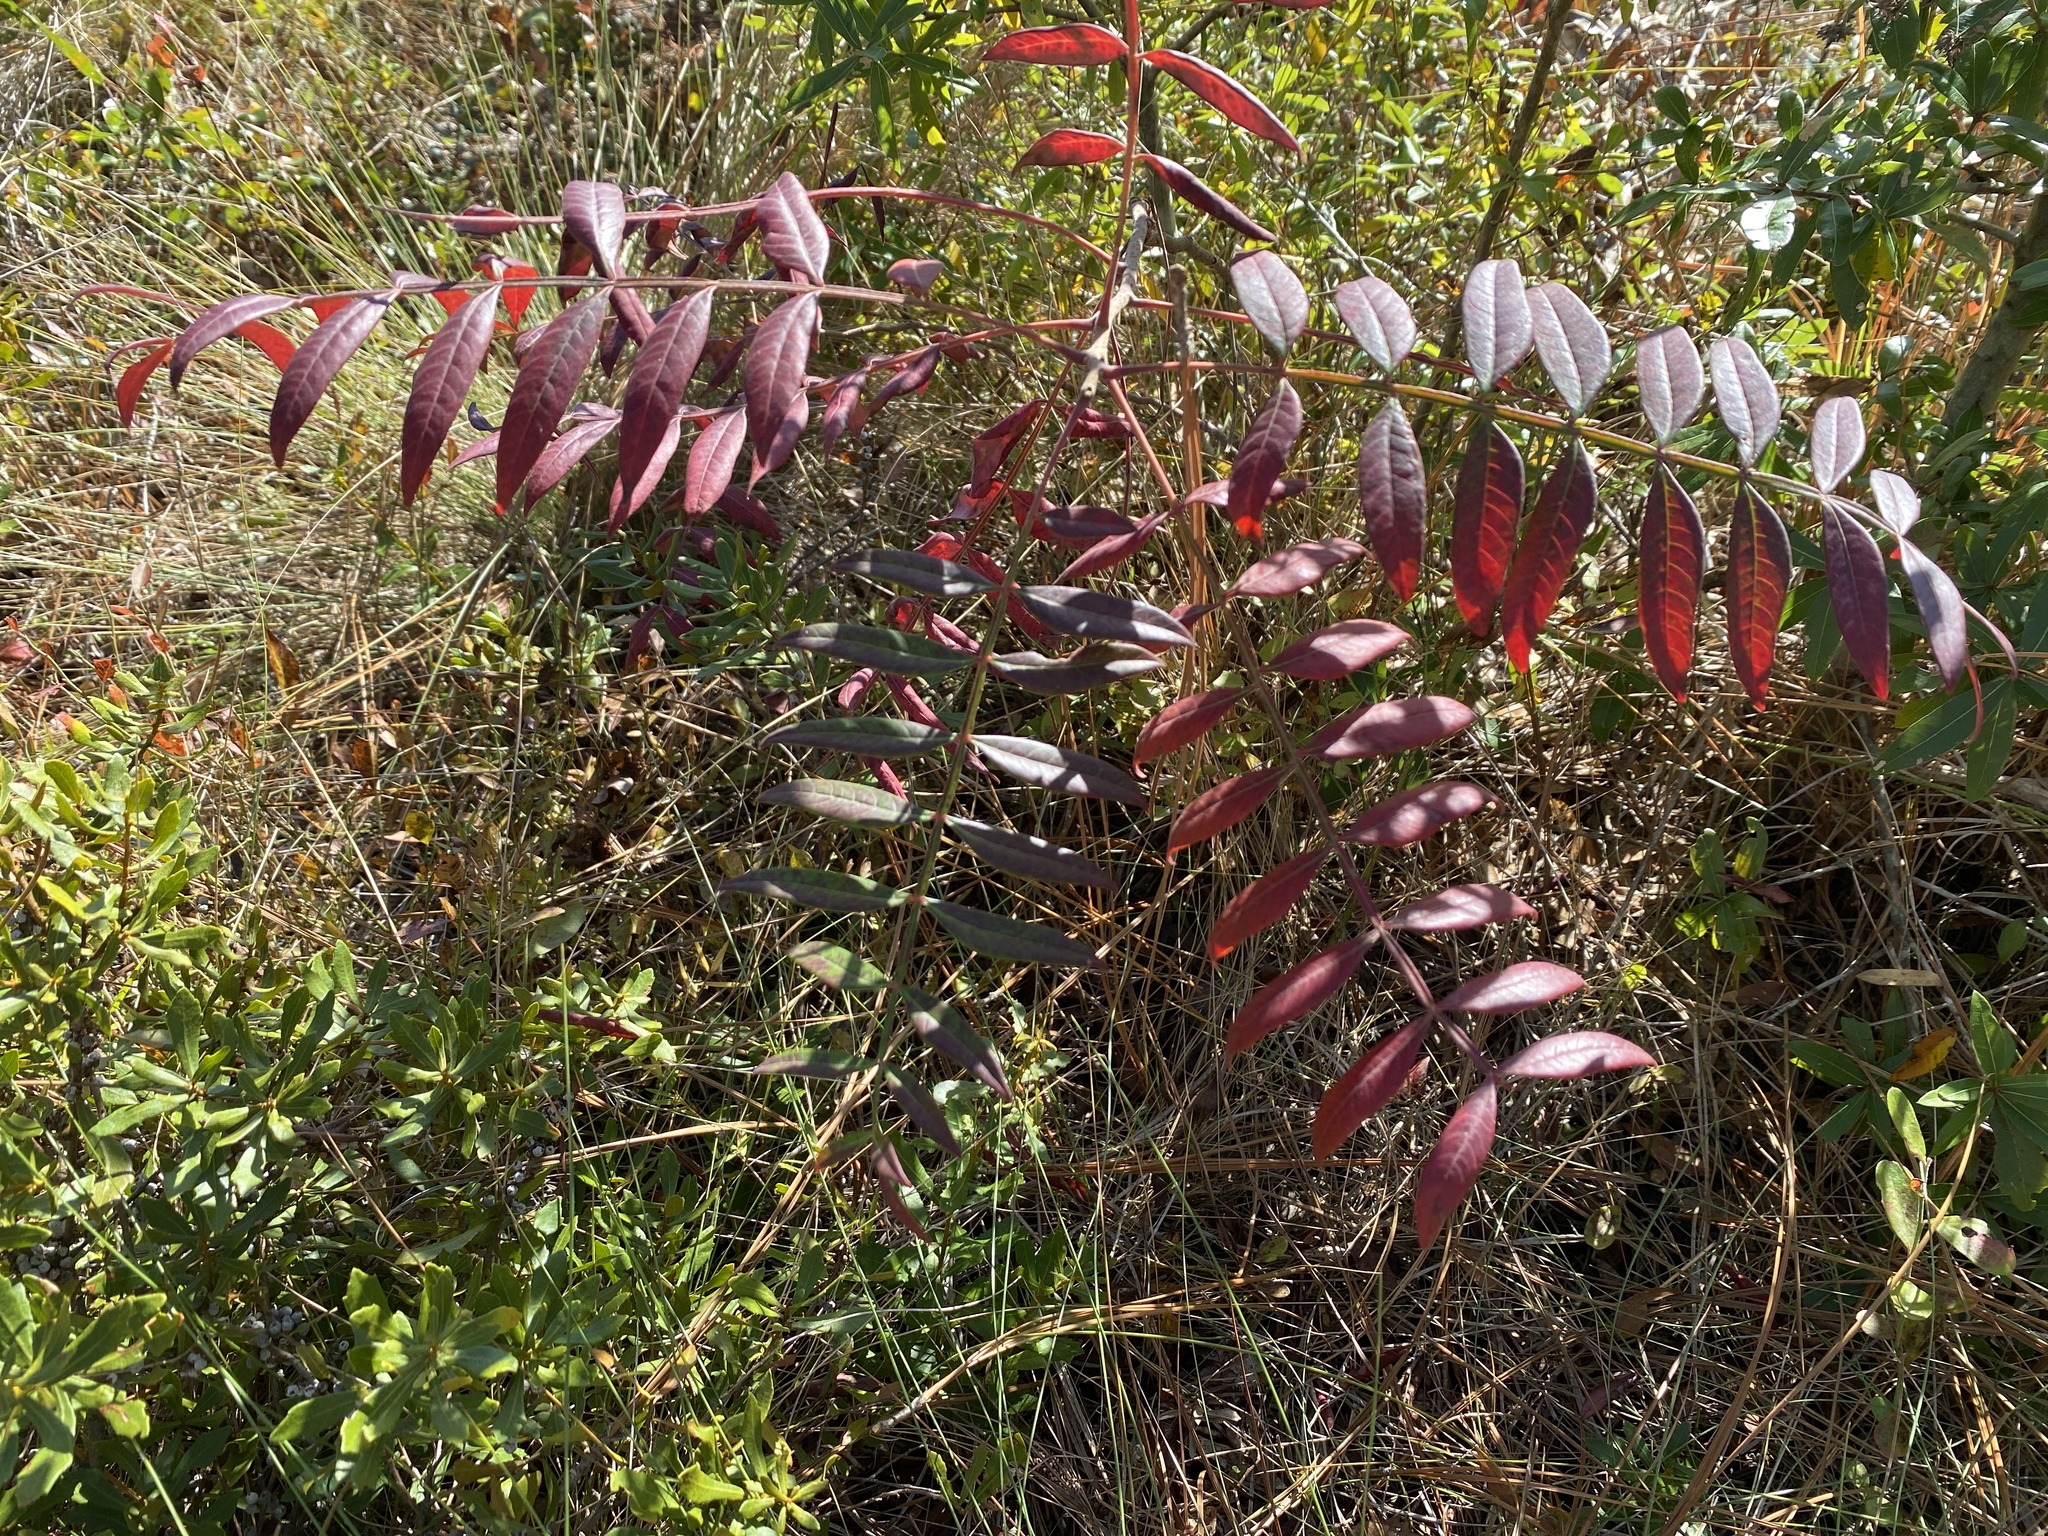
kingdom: Plantae
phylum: Tracheophyta
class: Magnoliopsida
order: Sapindales
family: Anacardiaceae
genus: Rhus
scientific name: Rhus copallina
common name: Shining sumac
